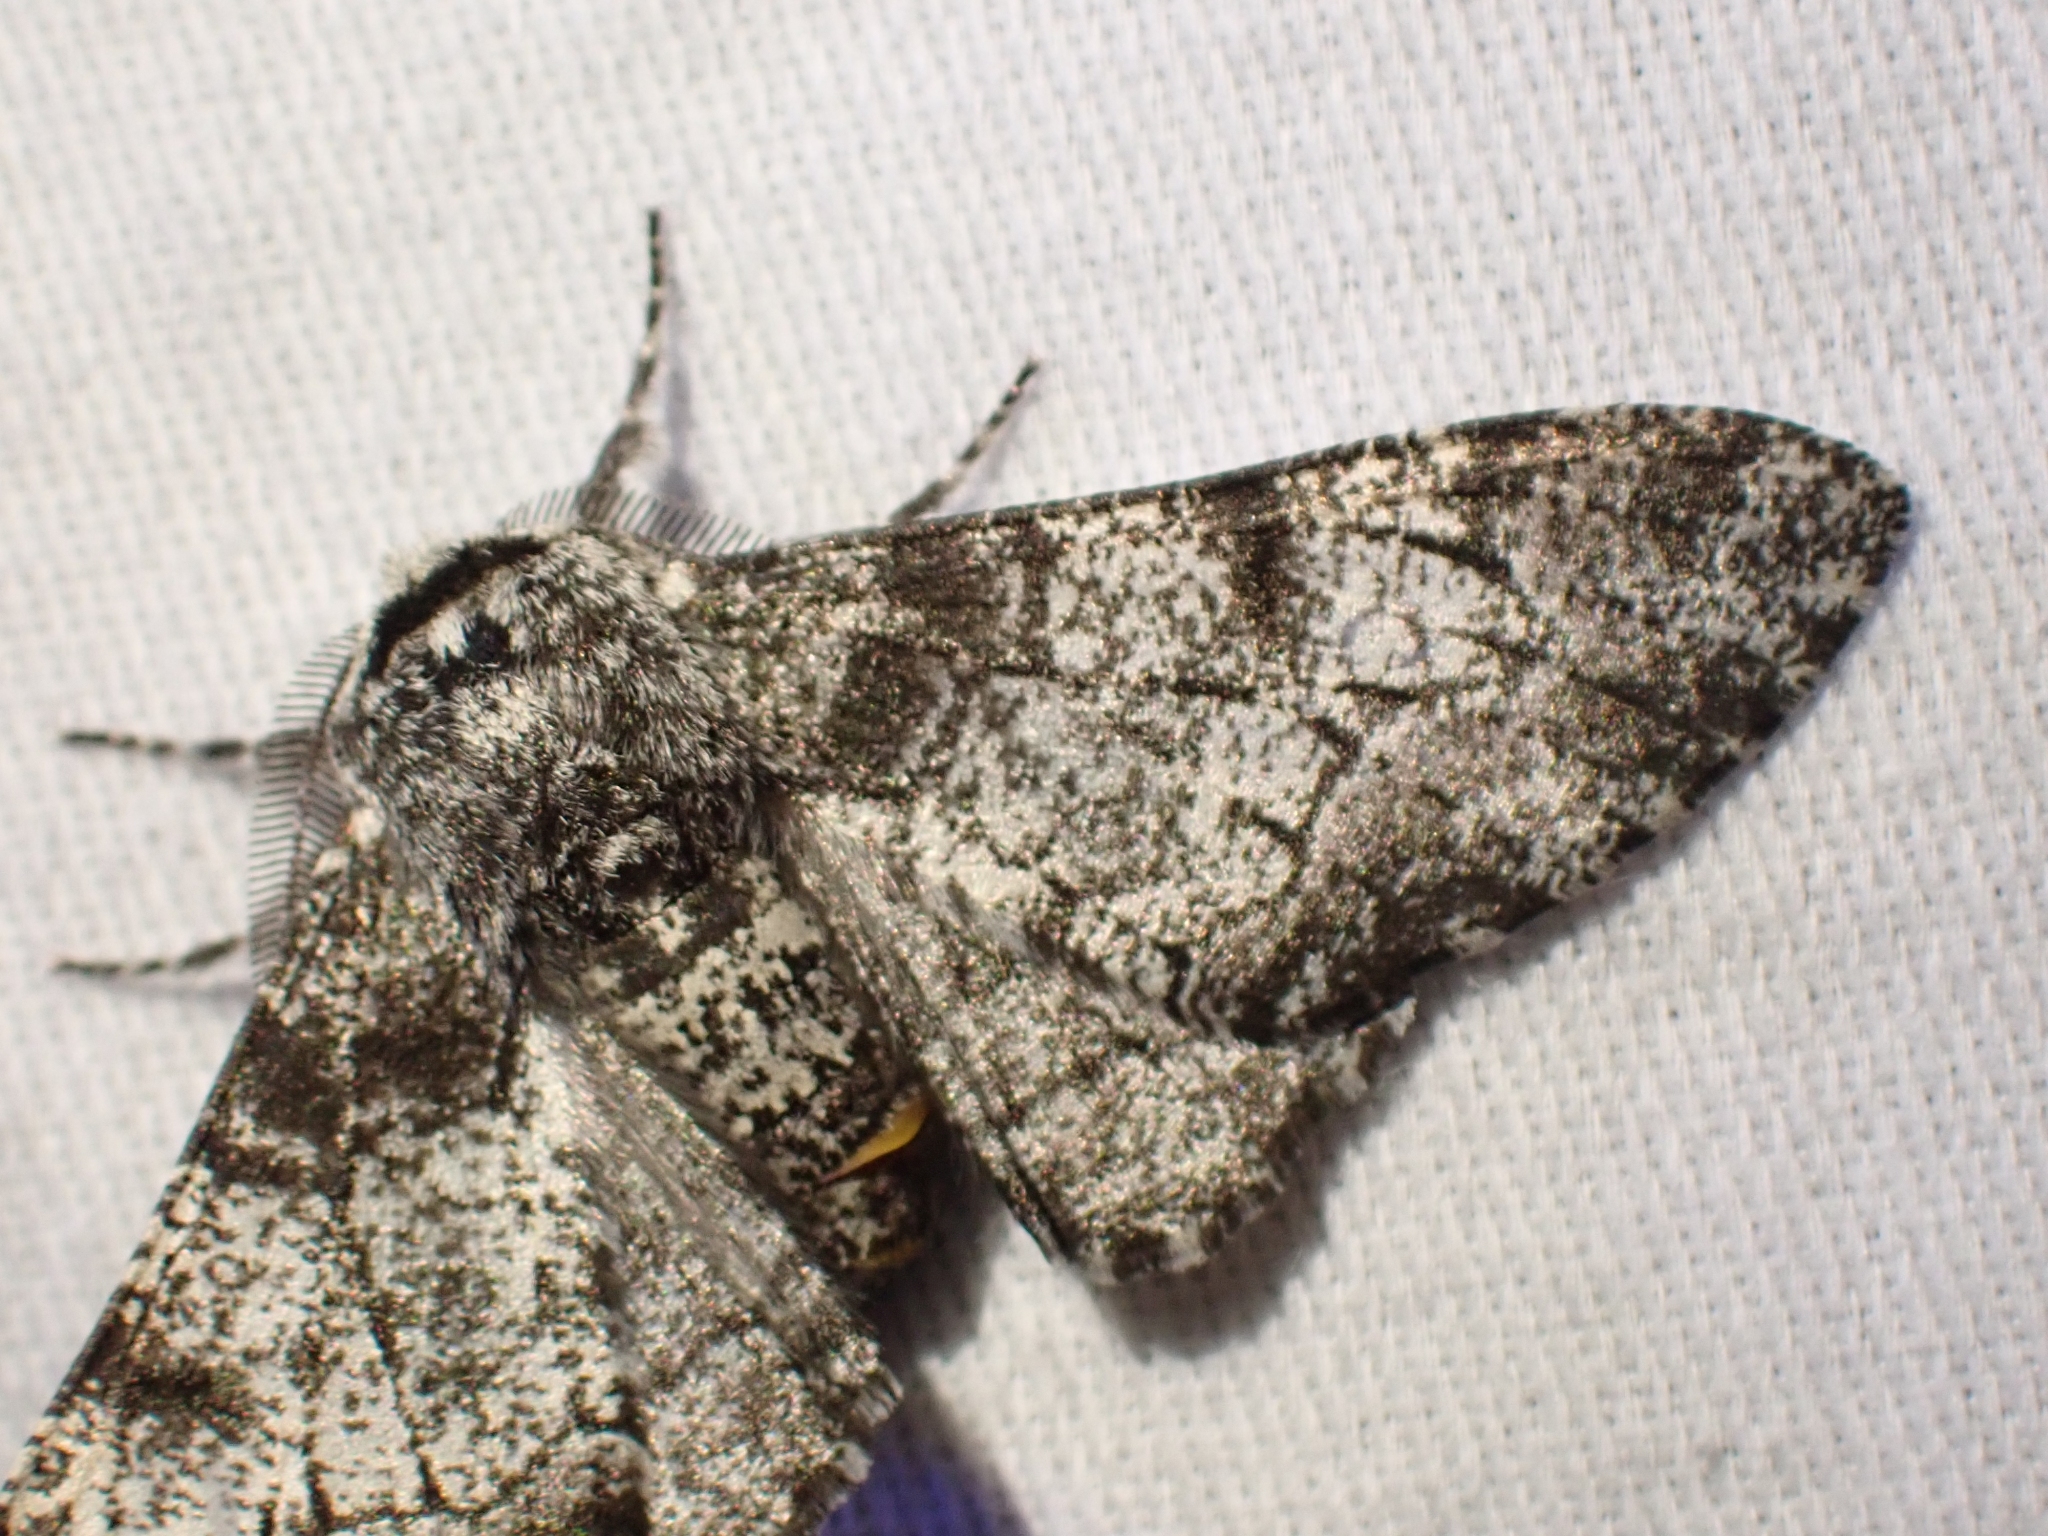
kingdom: Animalia
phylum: Arthropoda
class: Insecta
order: Lepidoptera
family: Geometridae
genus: Biston
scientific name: Biston betularia
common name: Peppered moth
